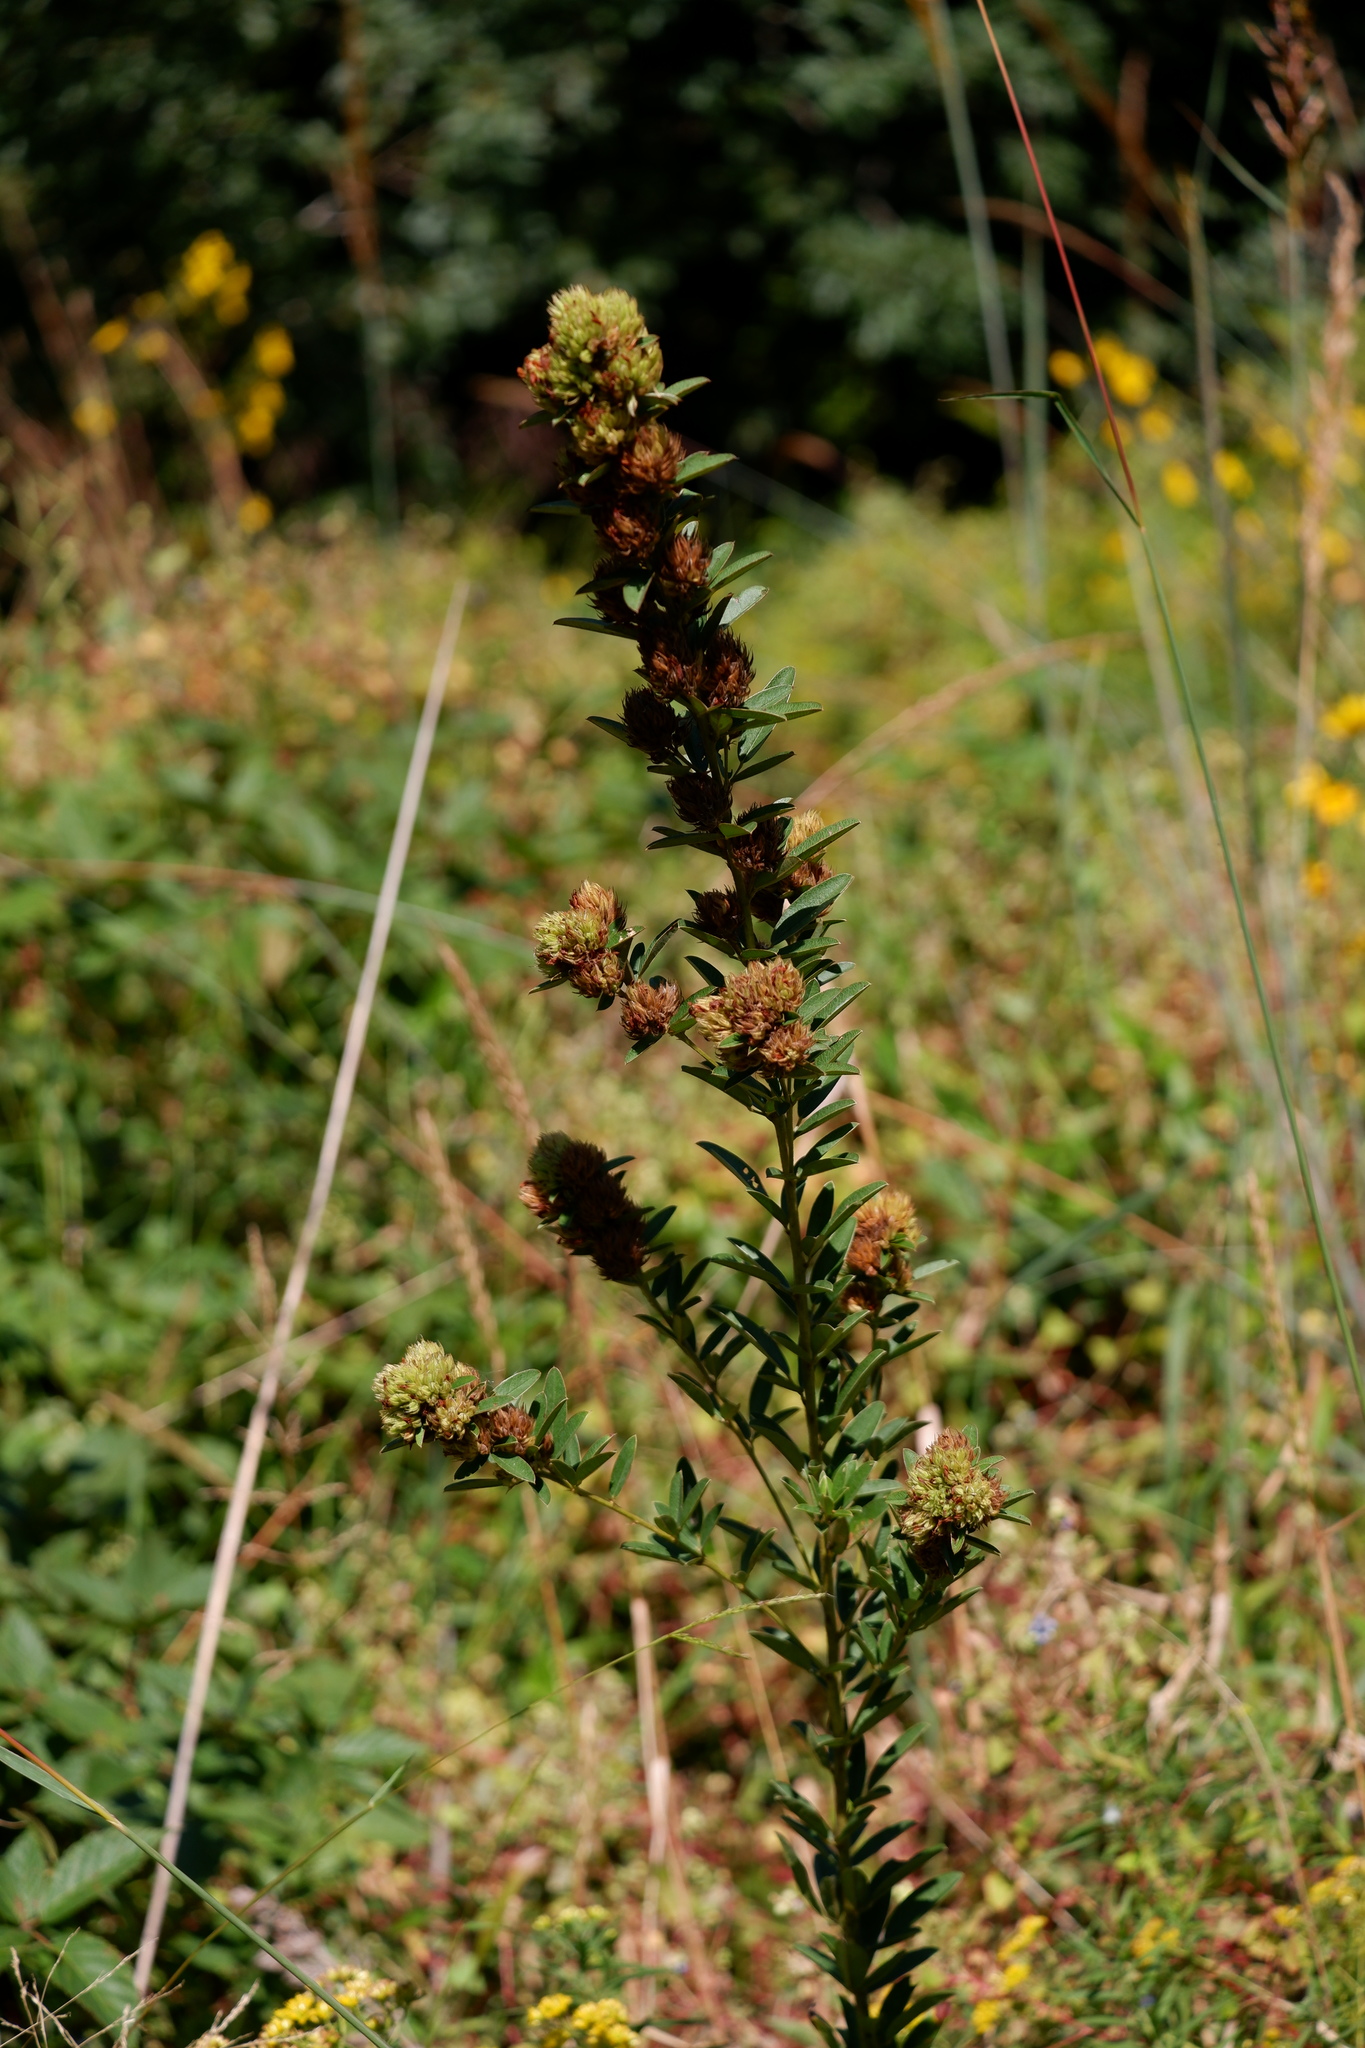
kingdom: Plantae
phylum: Tracheophyta
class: Magnoliopsida
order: Fabales
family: Fabaceae
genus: Lespedeza
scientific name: Lespedeza capitata
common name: Dusty clover
